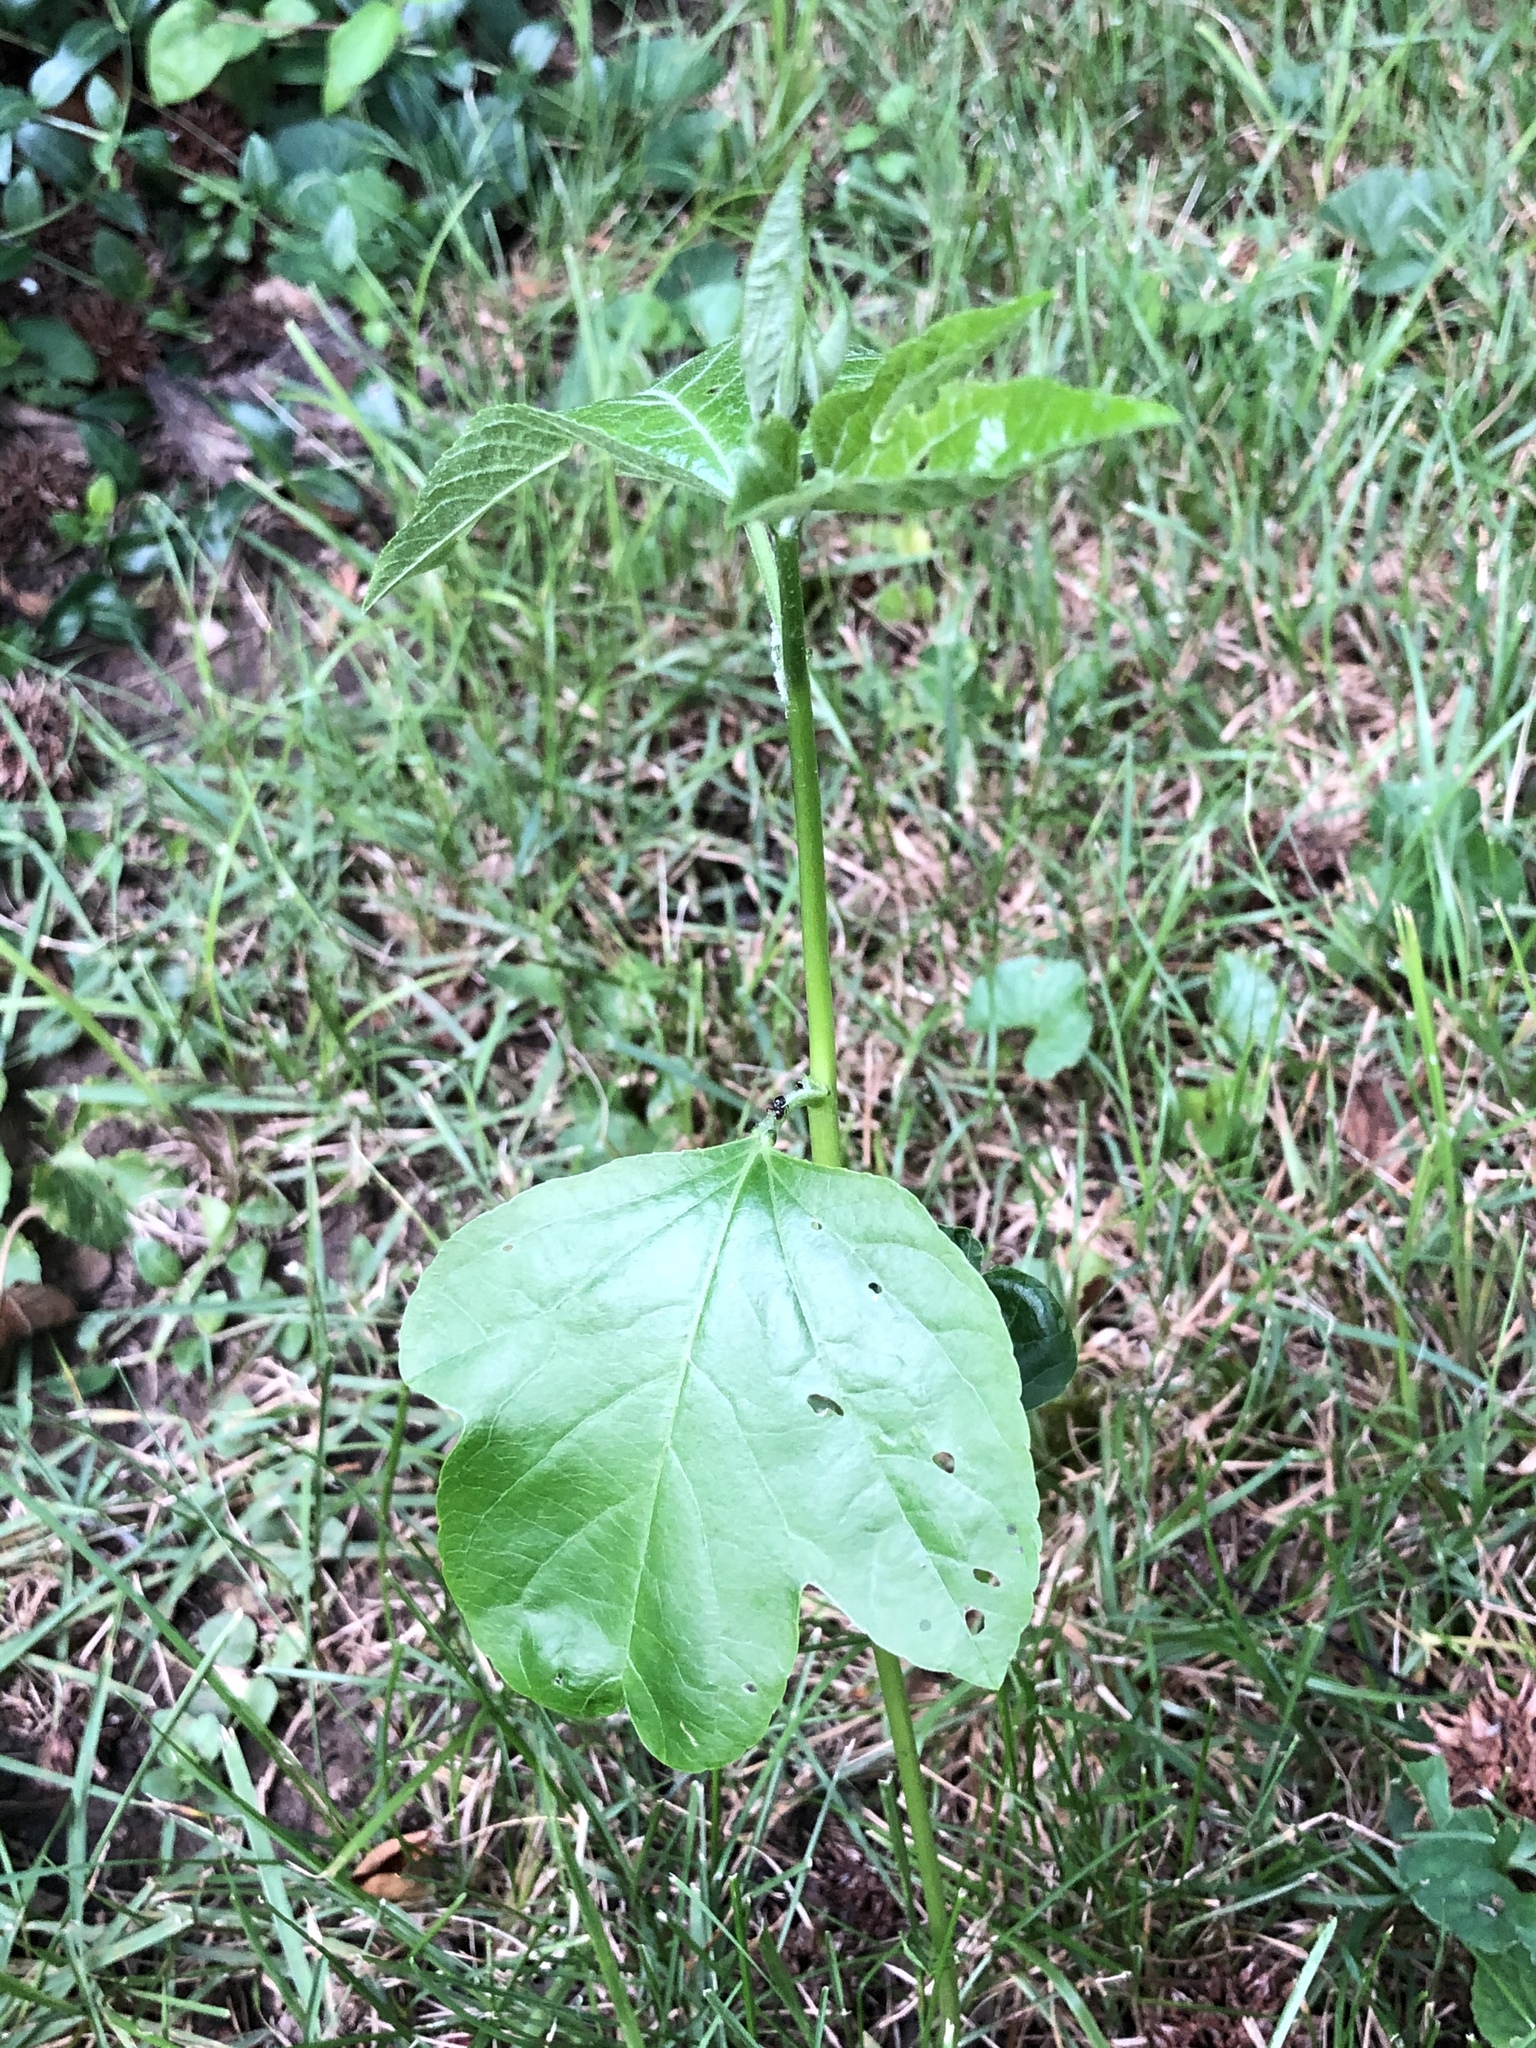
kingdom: Plantae
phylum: Tracheophyta
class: Magnoliopsida
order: Malpighiales
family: Passifloraceae
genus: Passiflora
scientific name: Passiflora incarnata
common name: Apricot-vine
